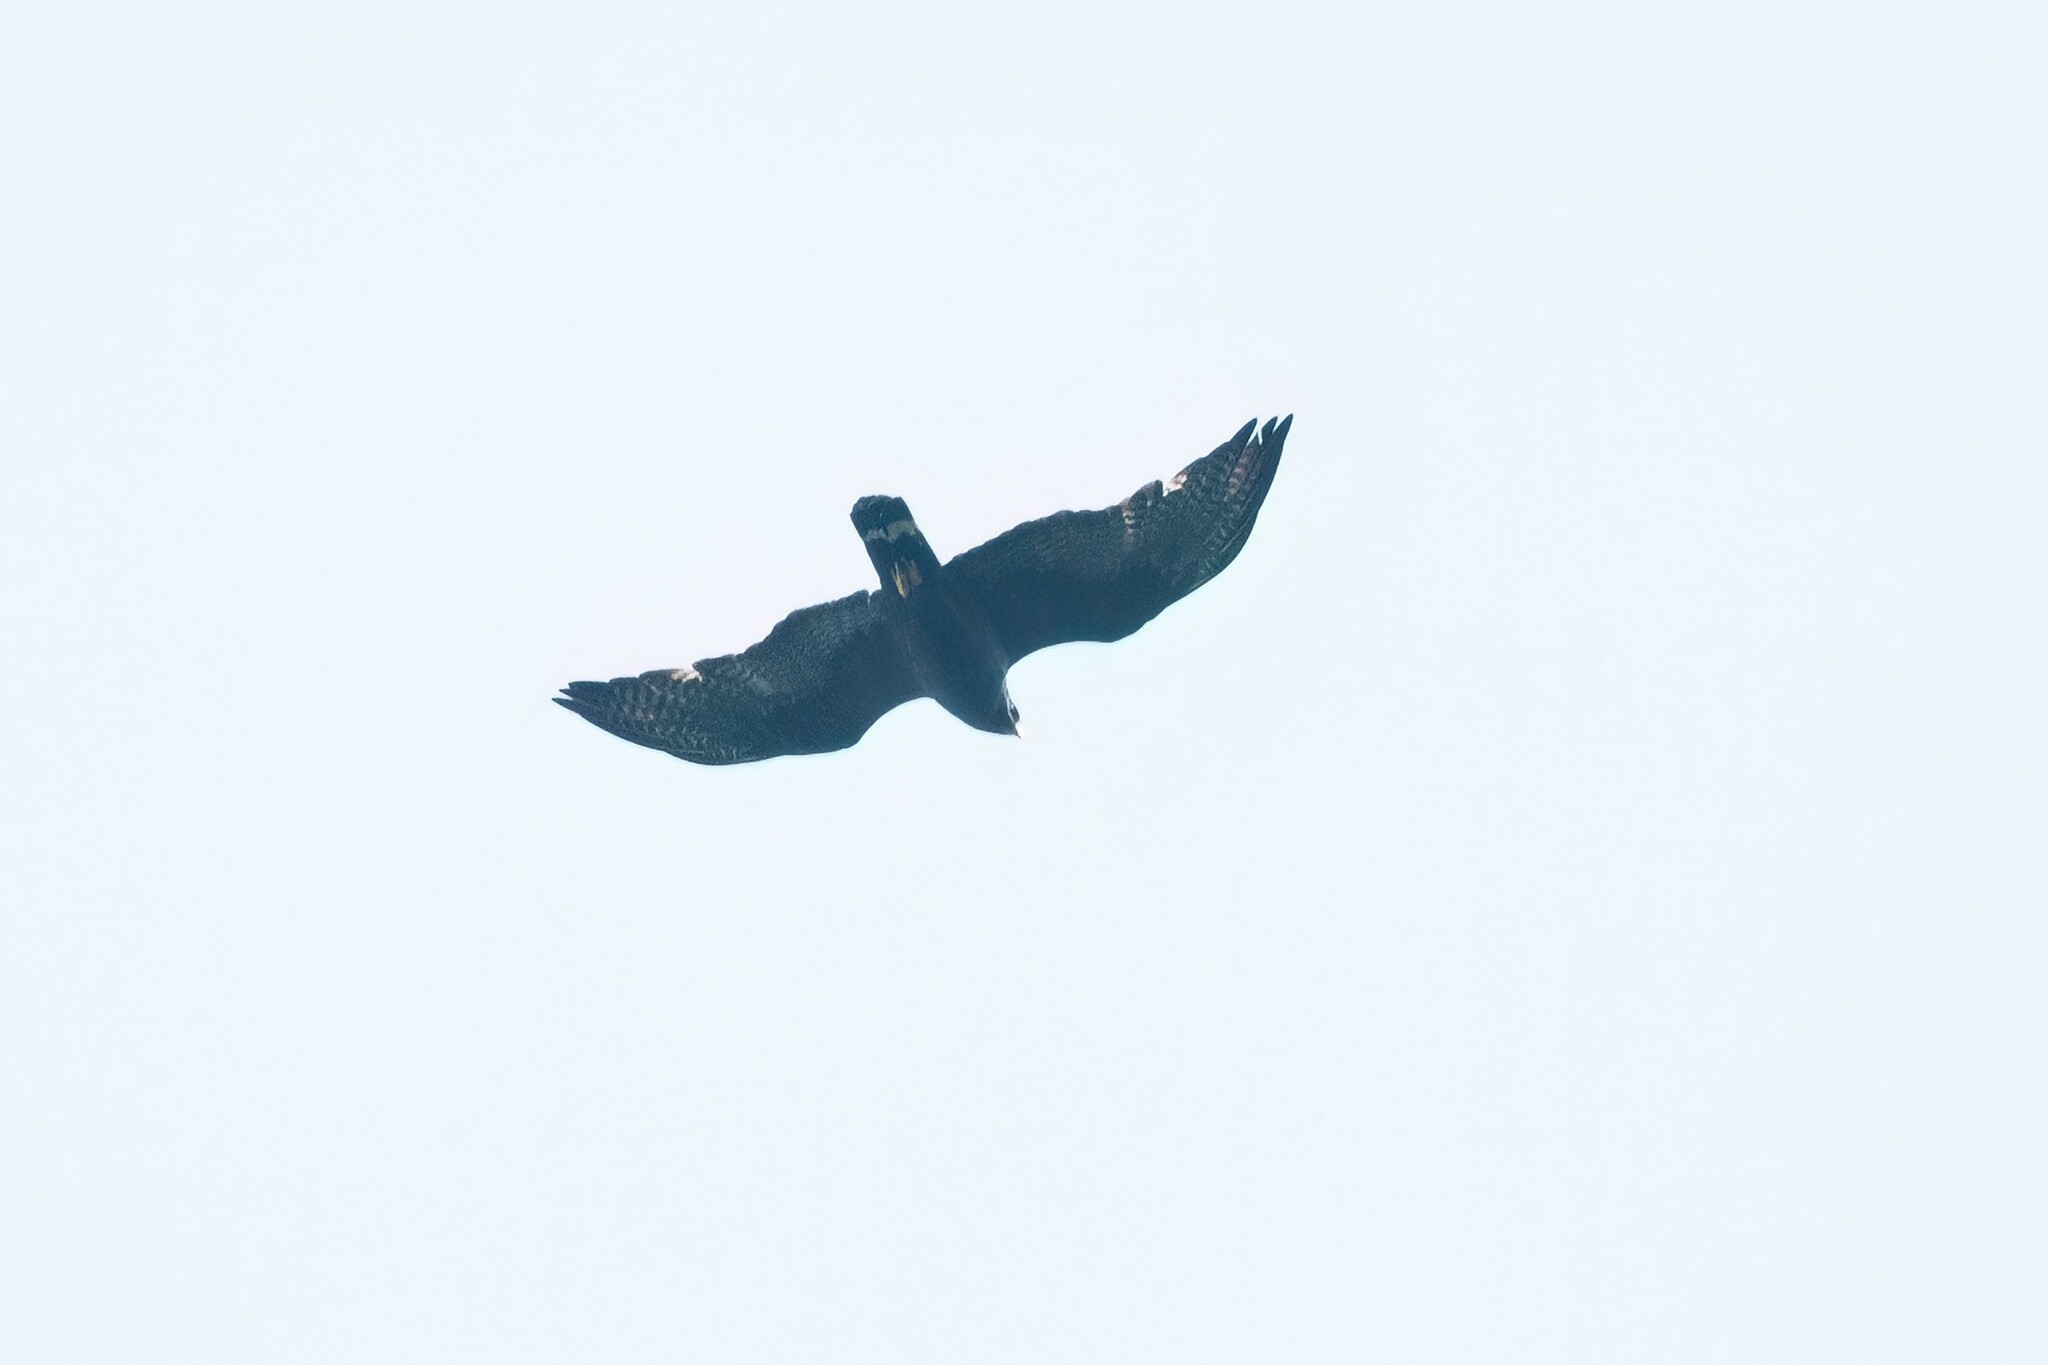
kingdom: Animalia
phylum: Chordata
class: Aves
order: Accipitriformes
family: Accipitridae
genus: Buteo
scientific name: Buteo albonotatus
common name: Zone-tailed hawk
